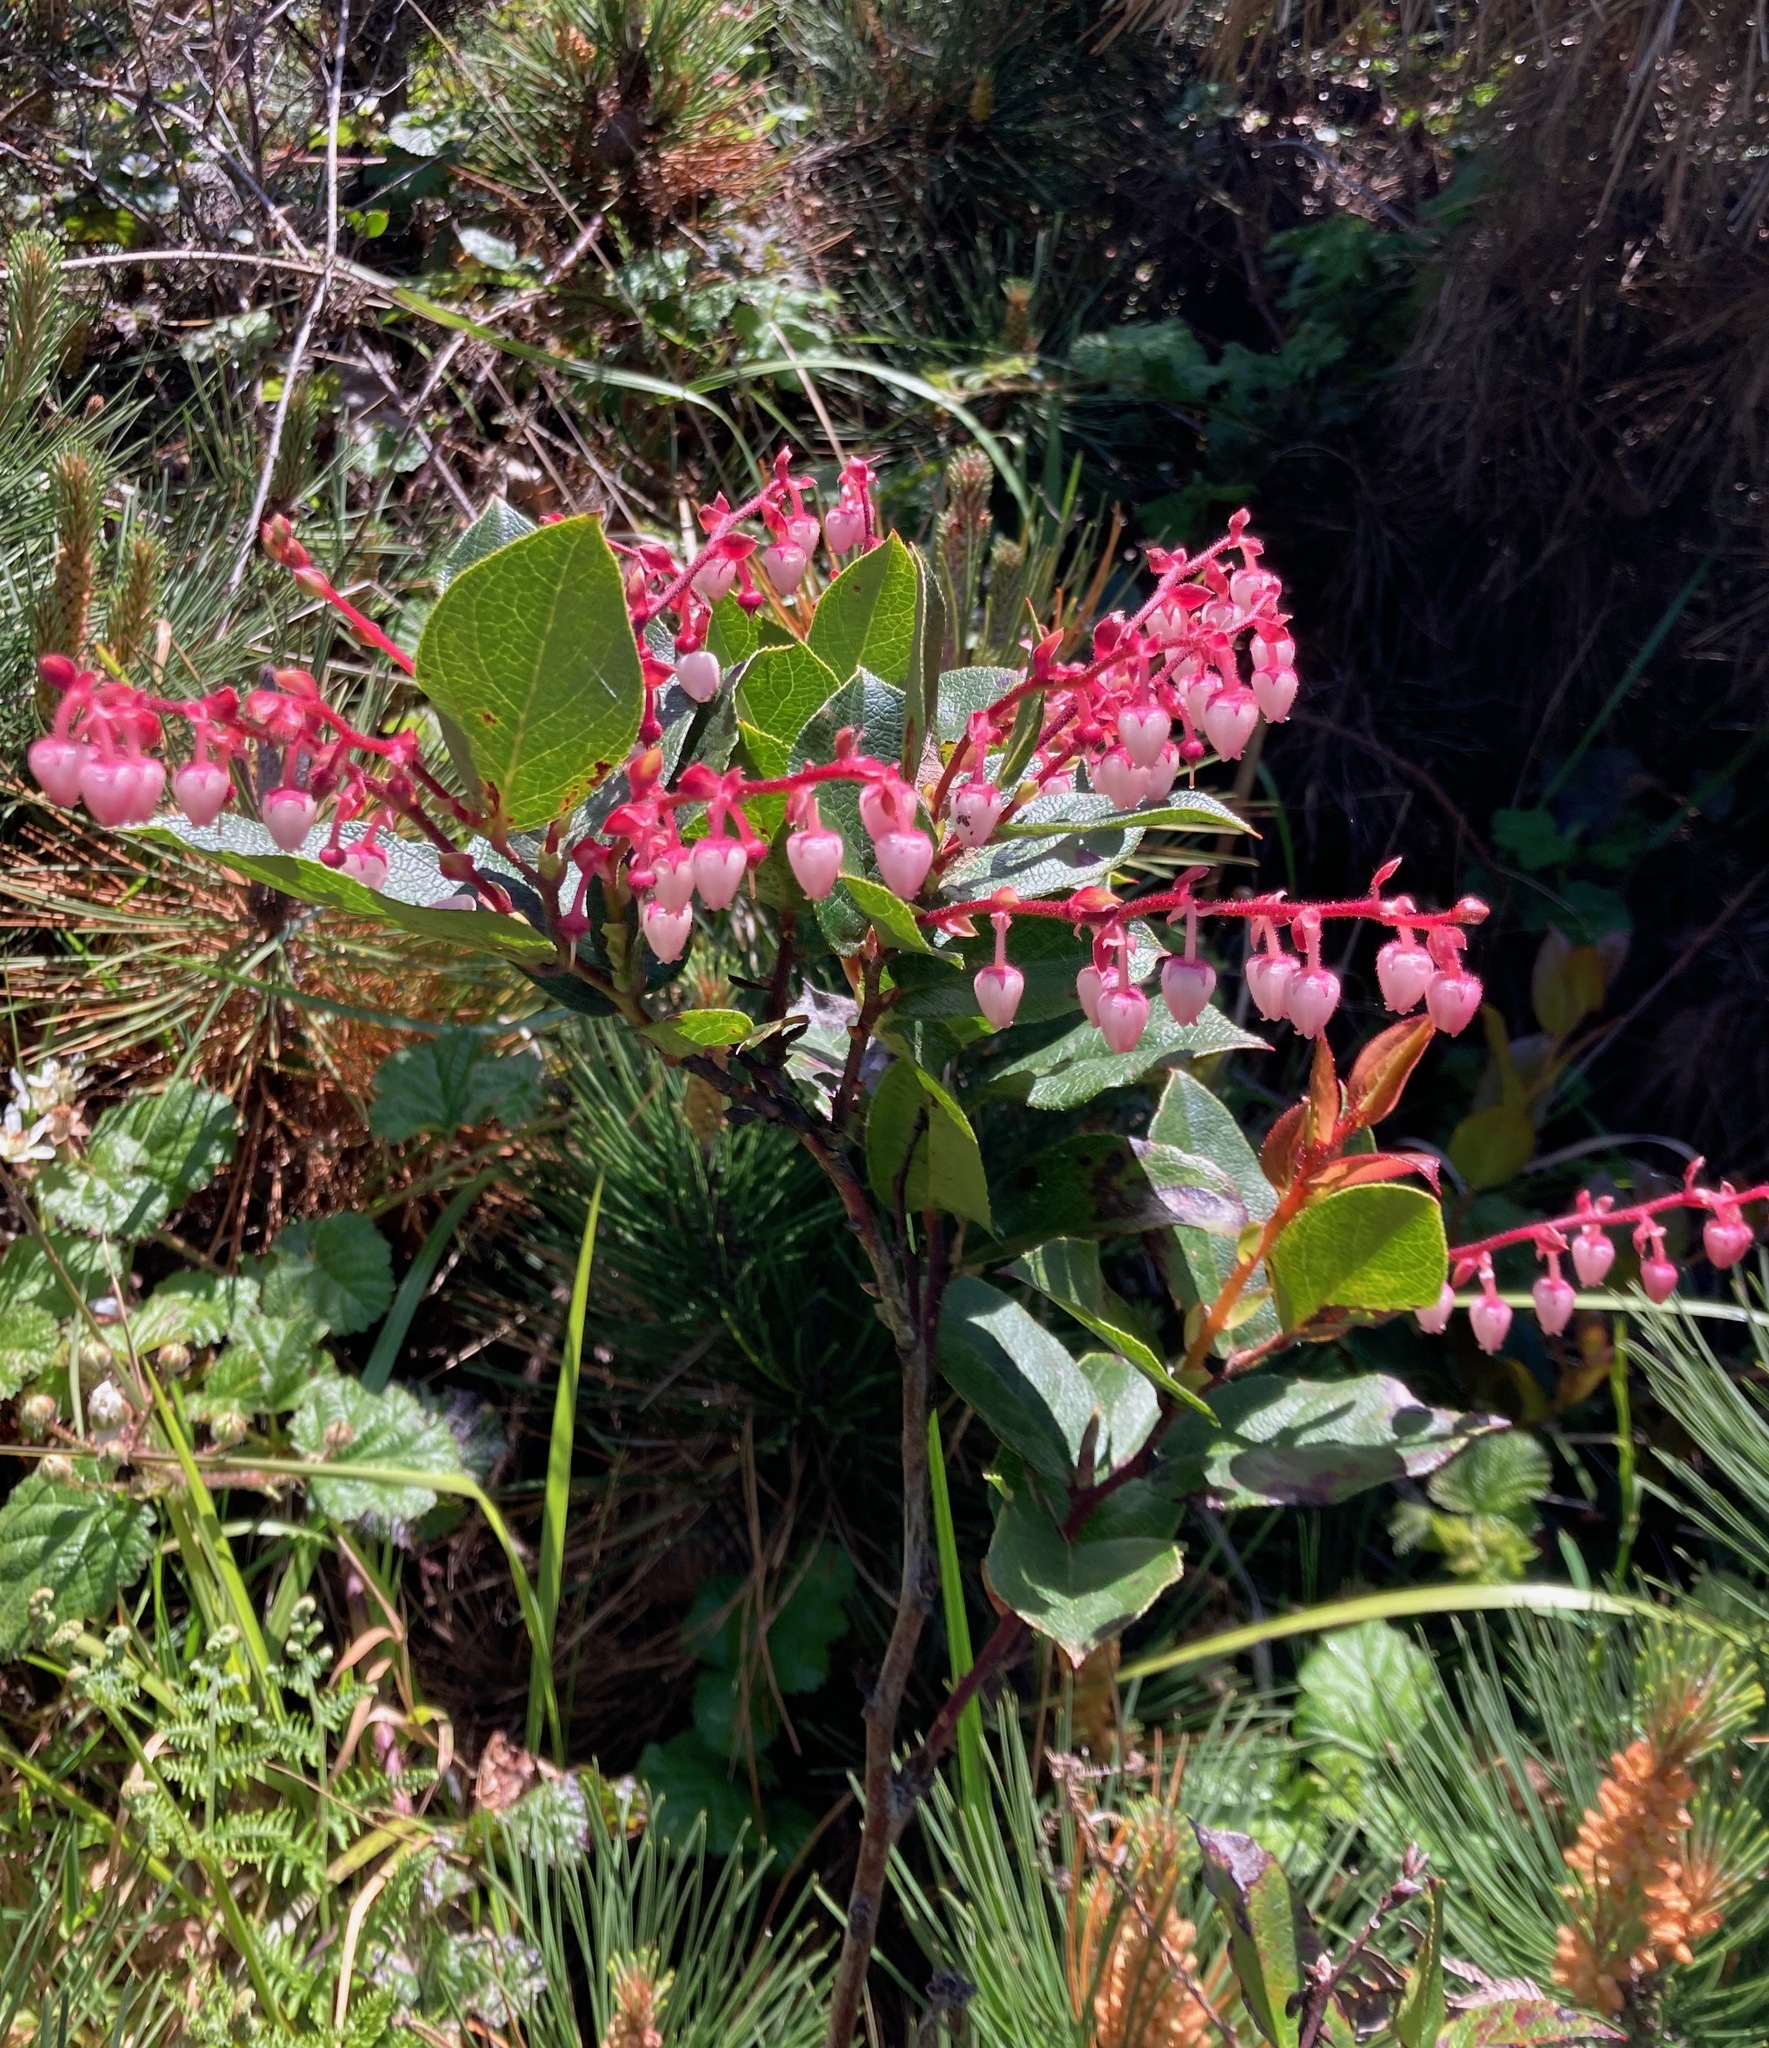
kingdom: Plantae
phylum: Tracheophyta
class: Magnoliopsida
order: Ericales
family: Ericaceae
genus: Gaultheria
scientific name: Gaultheria shallon
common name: Shallon
